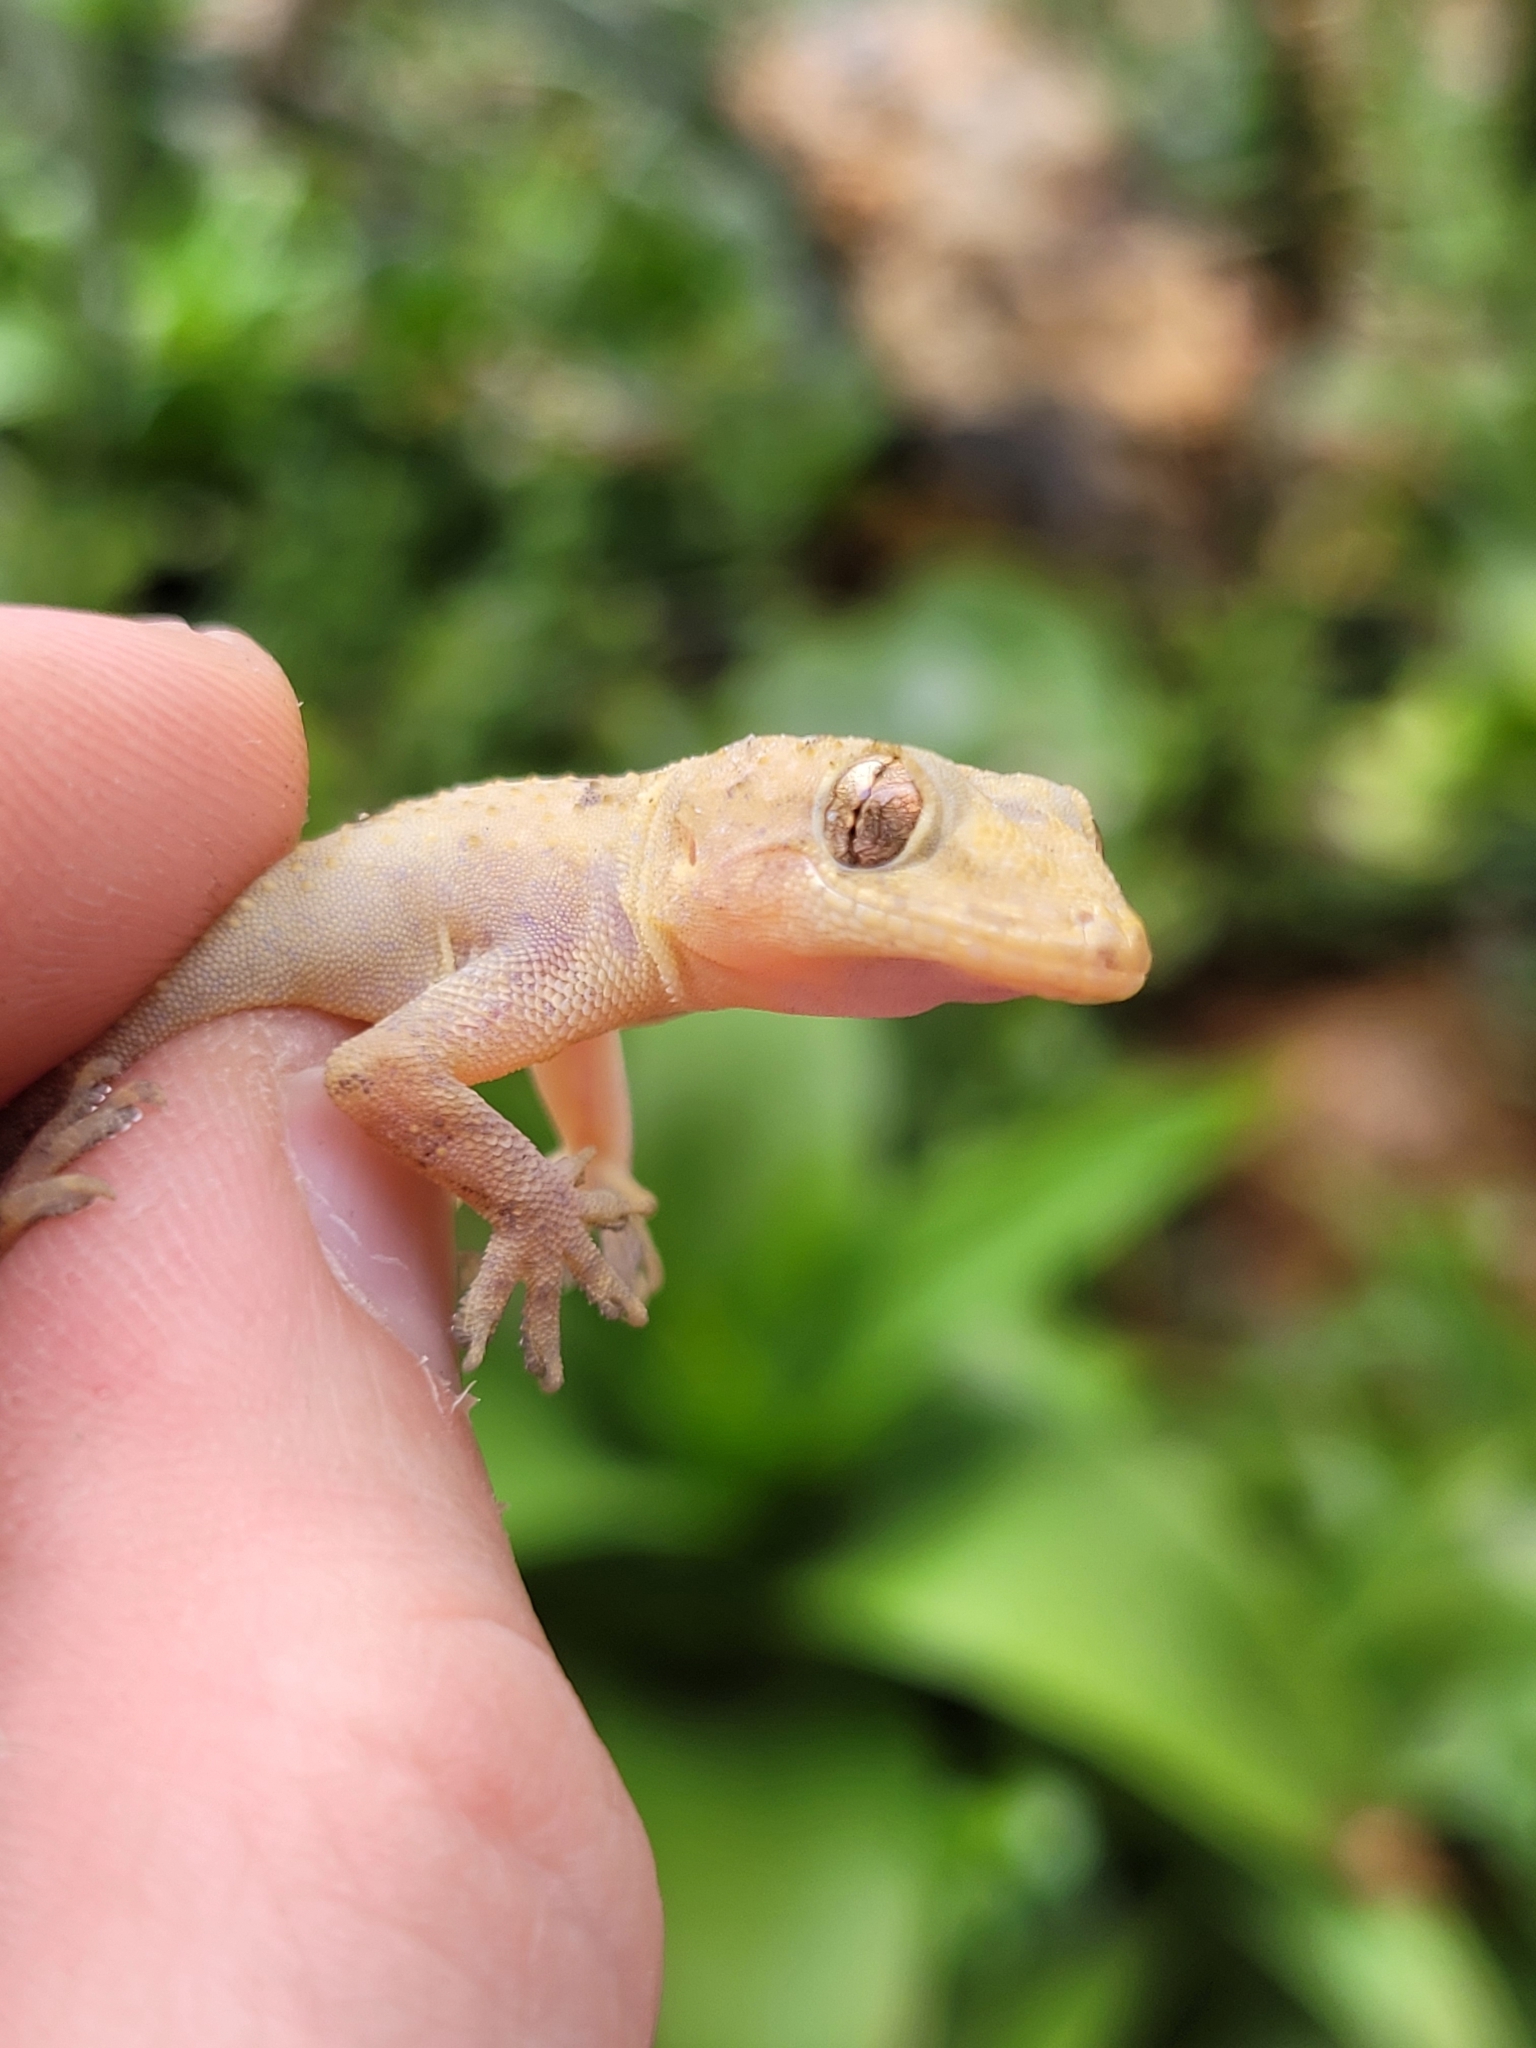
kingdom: Animalia
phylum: Chordata
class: Squamata
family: Gekkonidae
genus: Hemidactylus
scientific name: Hemidactylus mabouia
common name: House gecko
